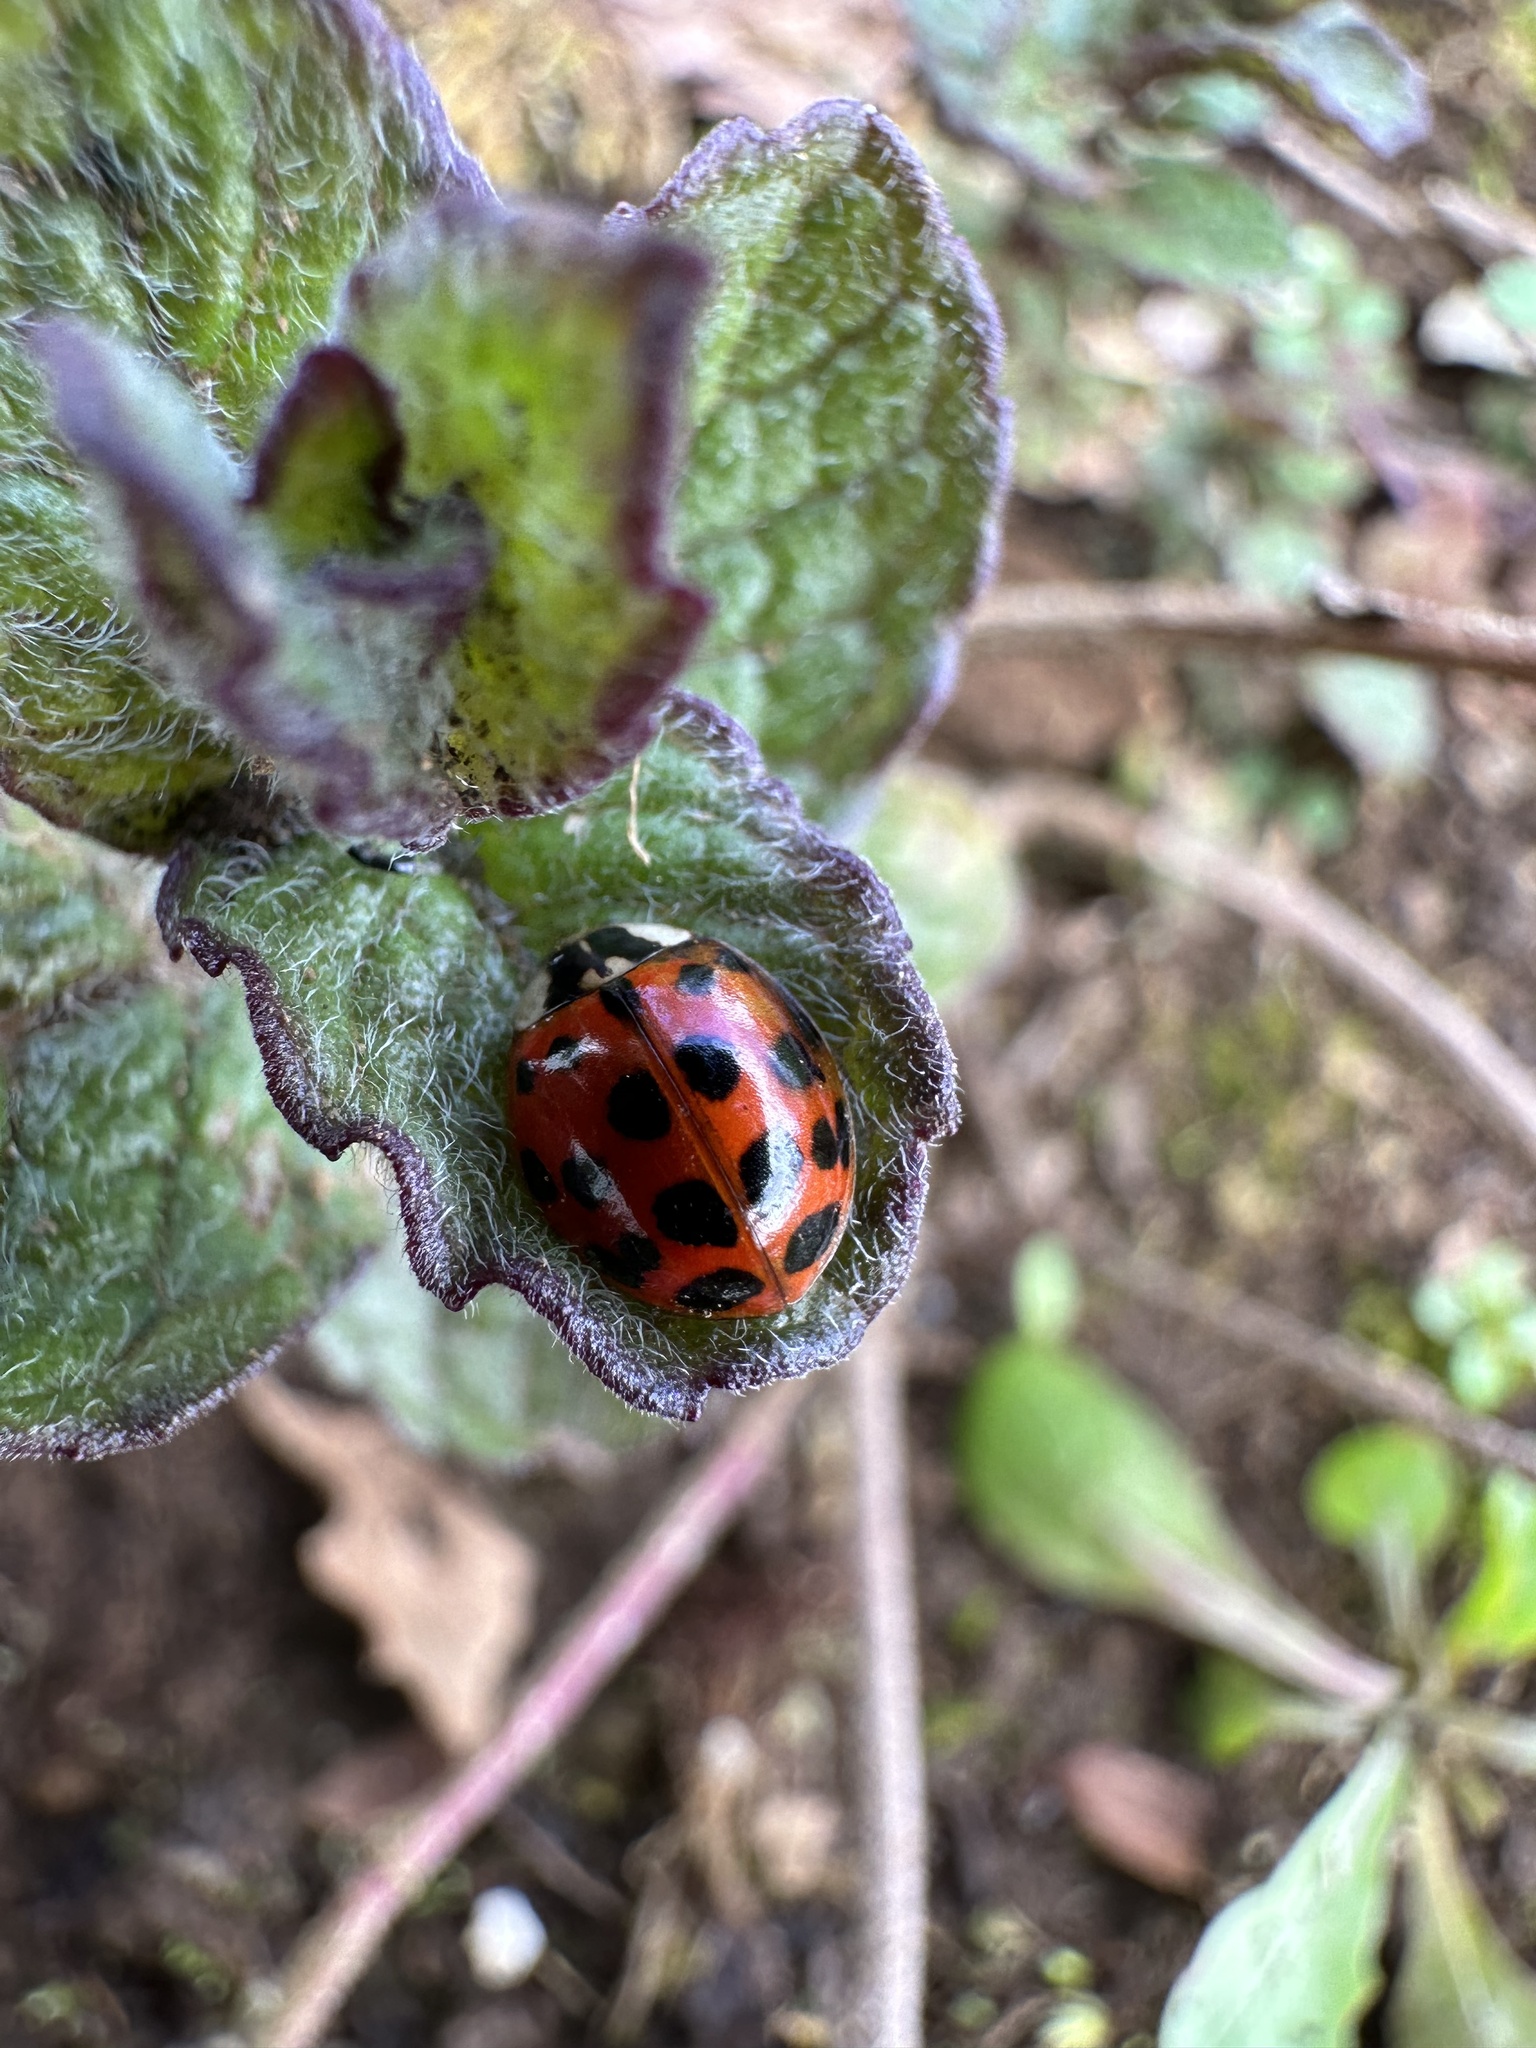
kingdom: Animalia
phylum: Arthropoda
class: Insecta
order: Coleoptera
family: Coccinellidae
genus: Harmonia
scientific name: Harmonia axyridis
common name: Harlequin ladybird
